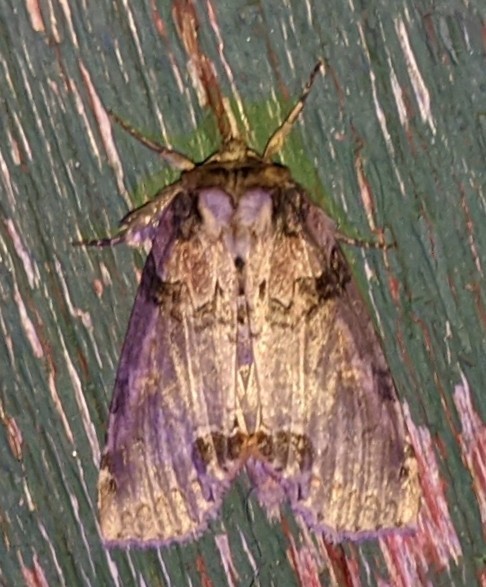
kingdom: Animalia
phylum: Arthropoda
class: Insecta
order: Lepidoptera
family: Drepanidae
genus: Pseudothyatira
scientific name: Pseudothyatira cymatophoroides
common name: Tufted thyatirid moth
